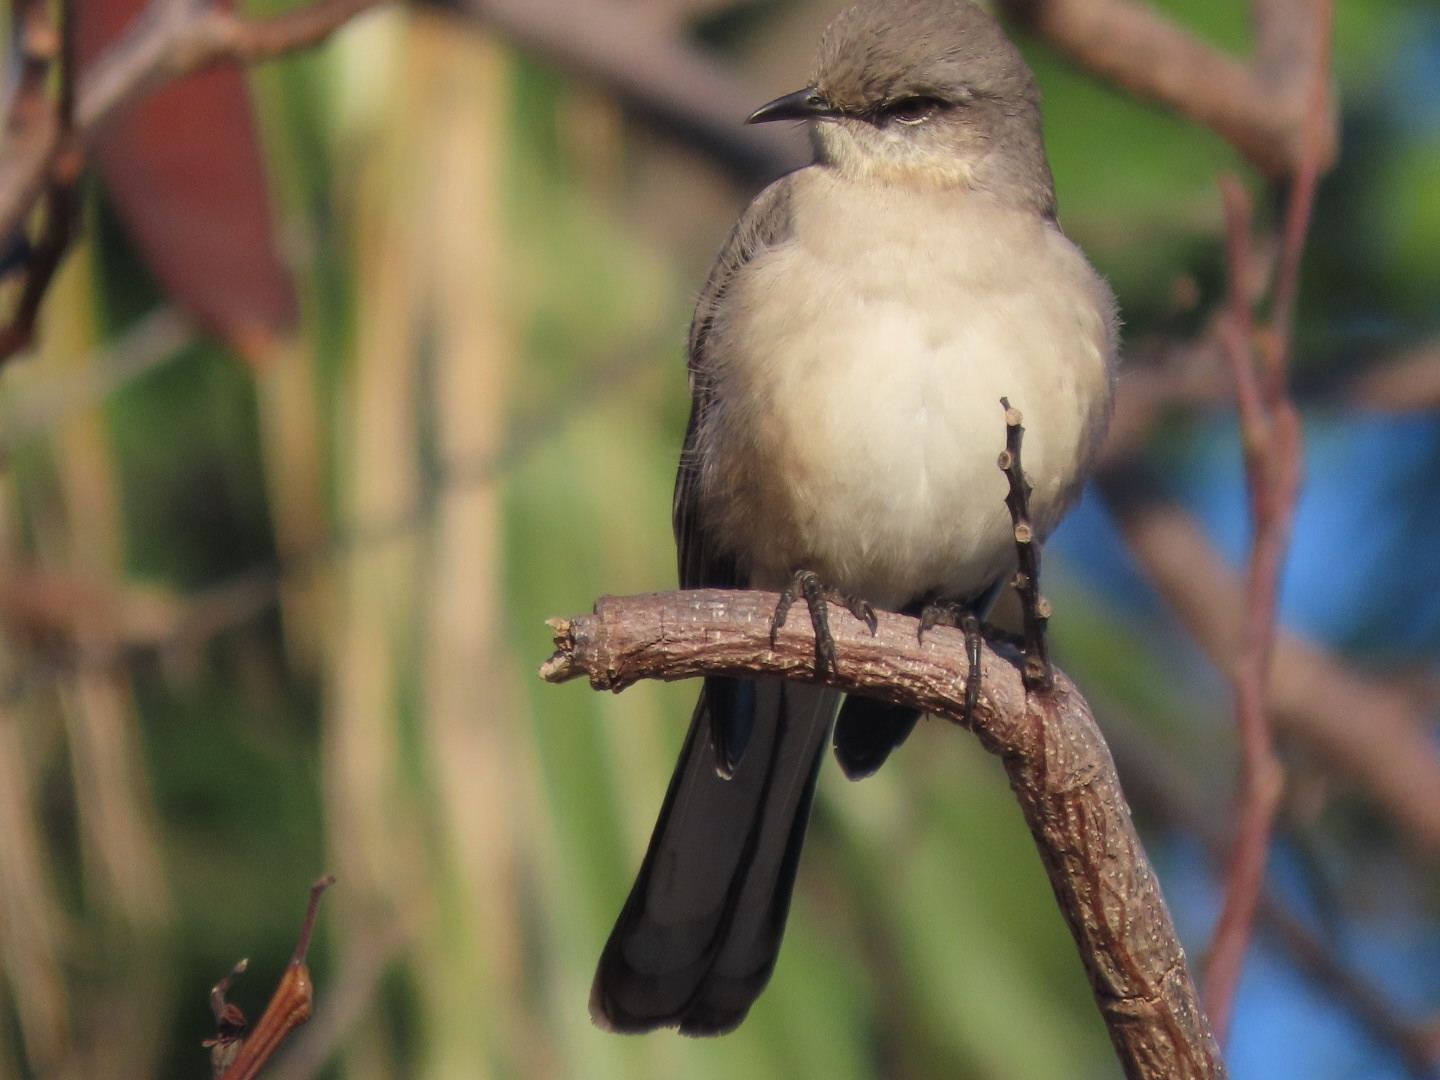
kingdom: Animalia
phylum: Chordata
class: Aves
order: Passeriformes
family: Mimidae
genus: Mimus
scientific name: Mimus polyglottos
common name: Northern mockingbird
